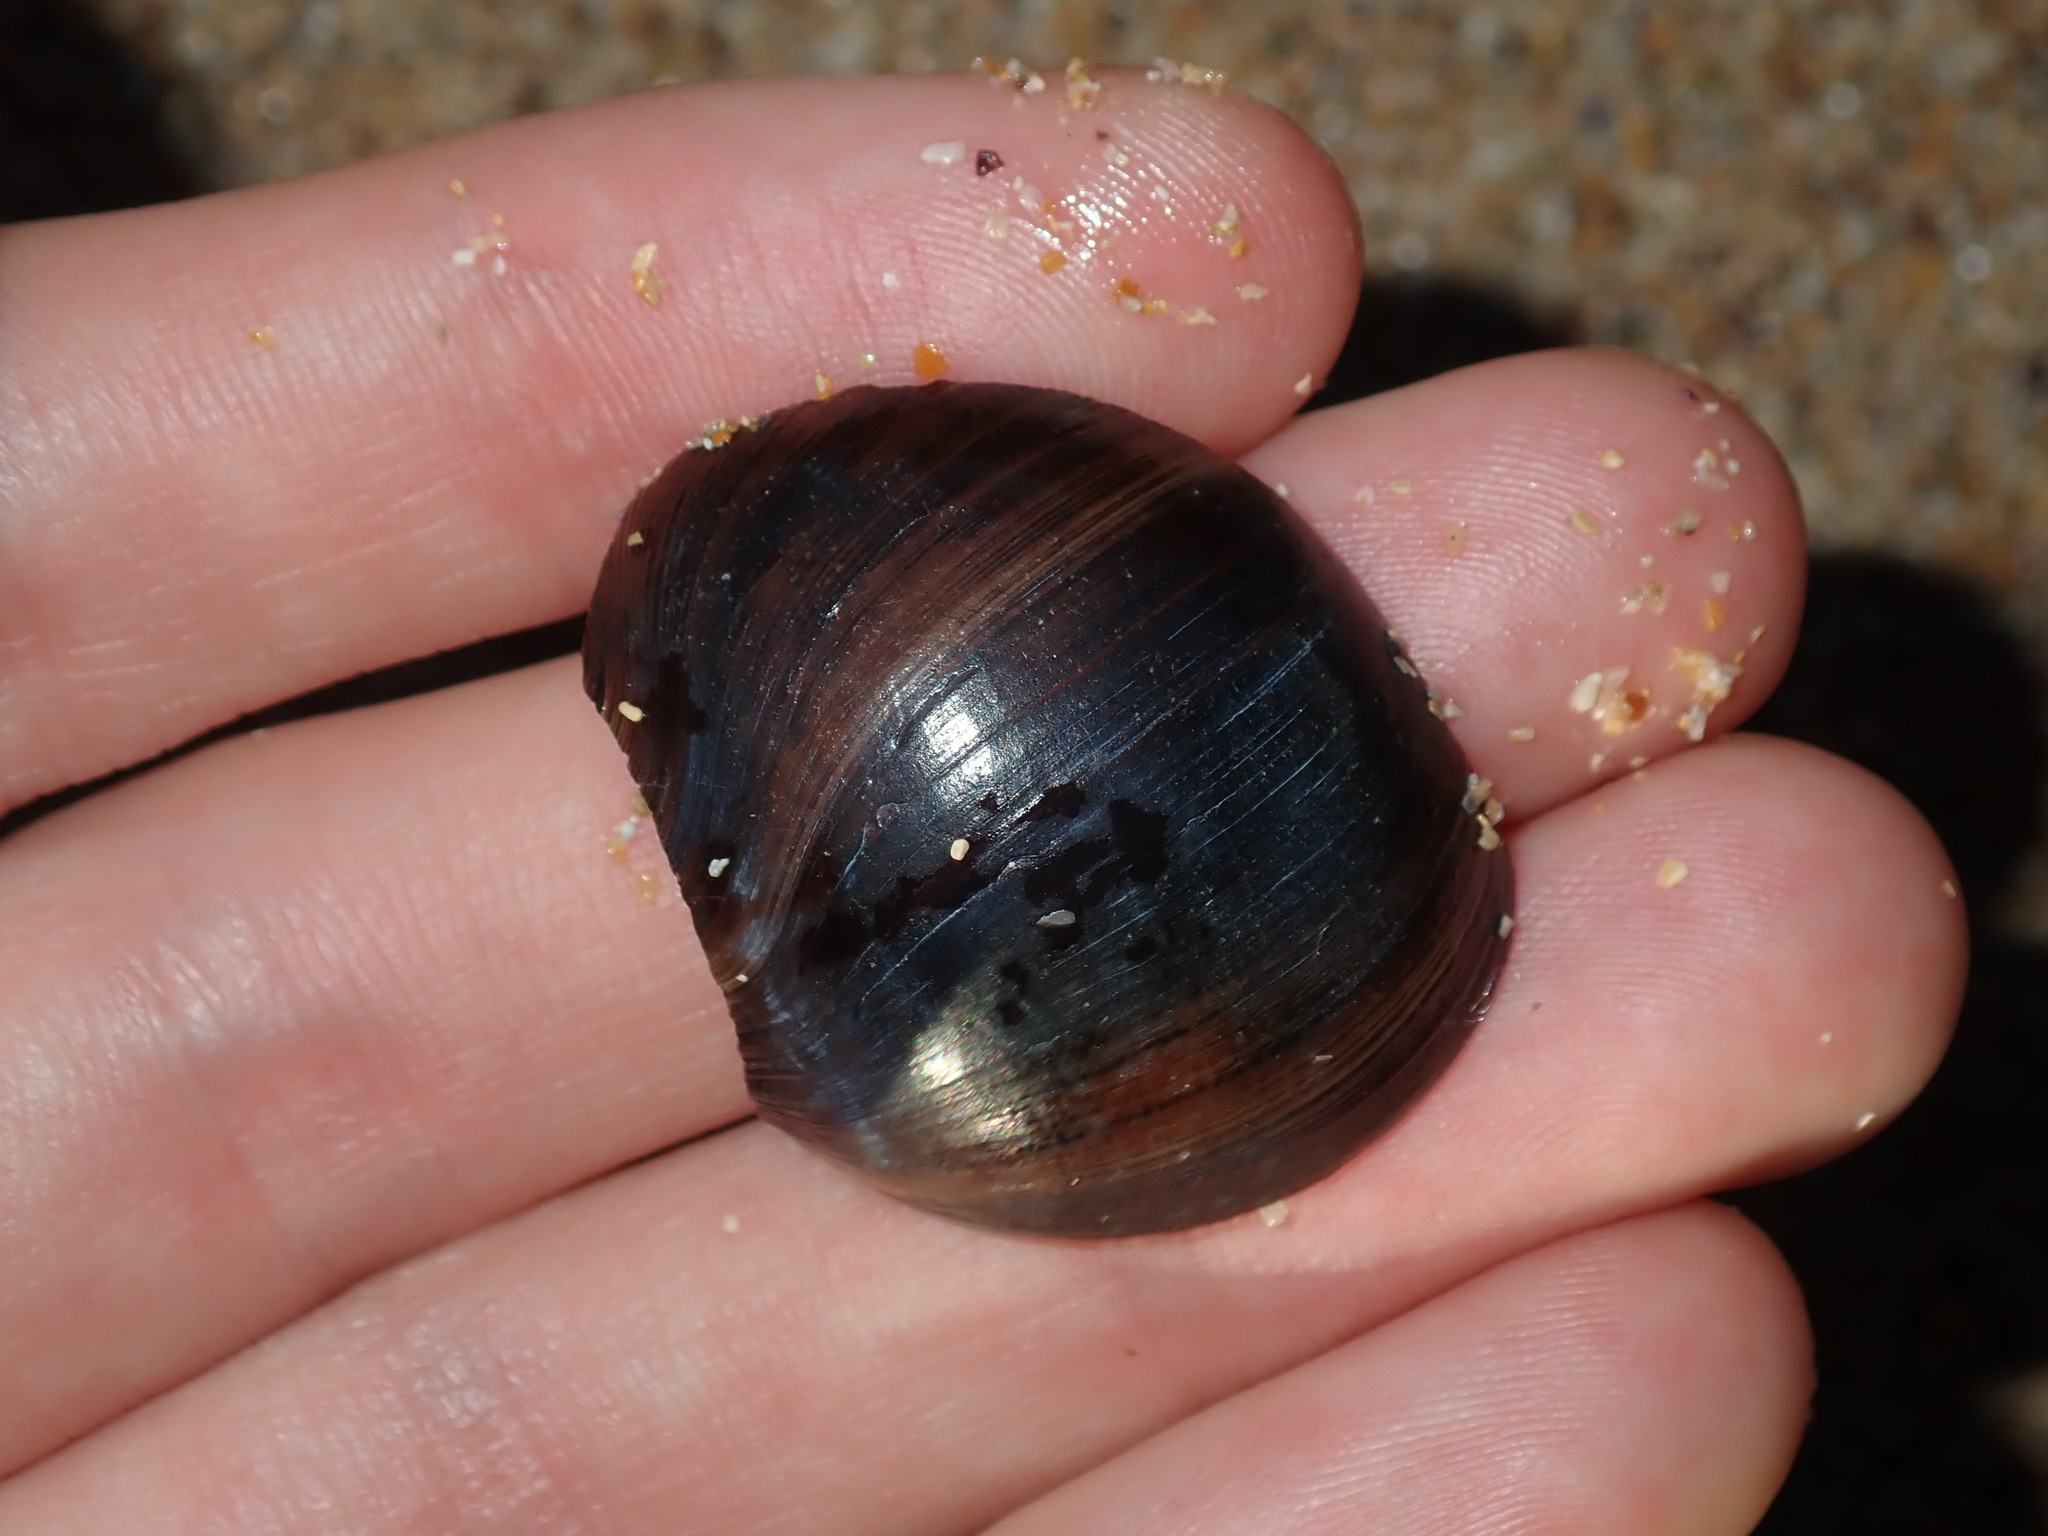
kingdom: Animalia
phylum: Mollusca
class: Gastropoda
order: Littorinimorpha
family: Naticidae
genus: Conuber
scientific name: Conuber sordidum
